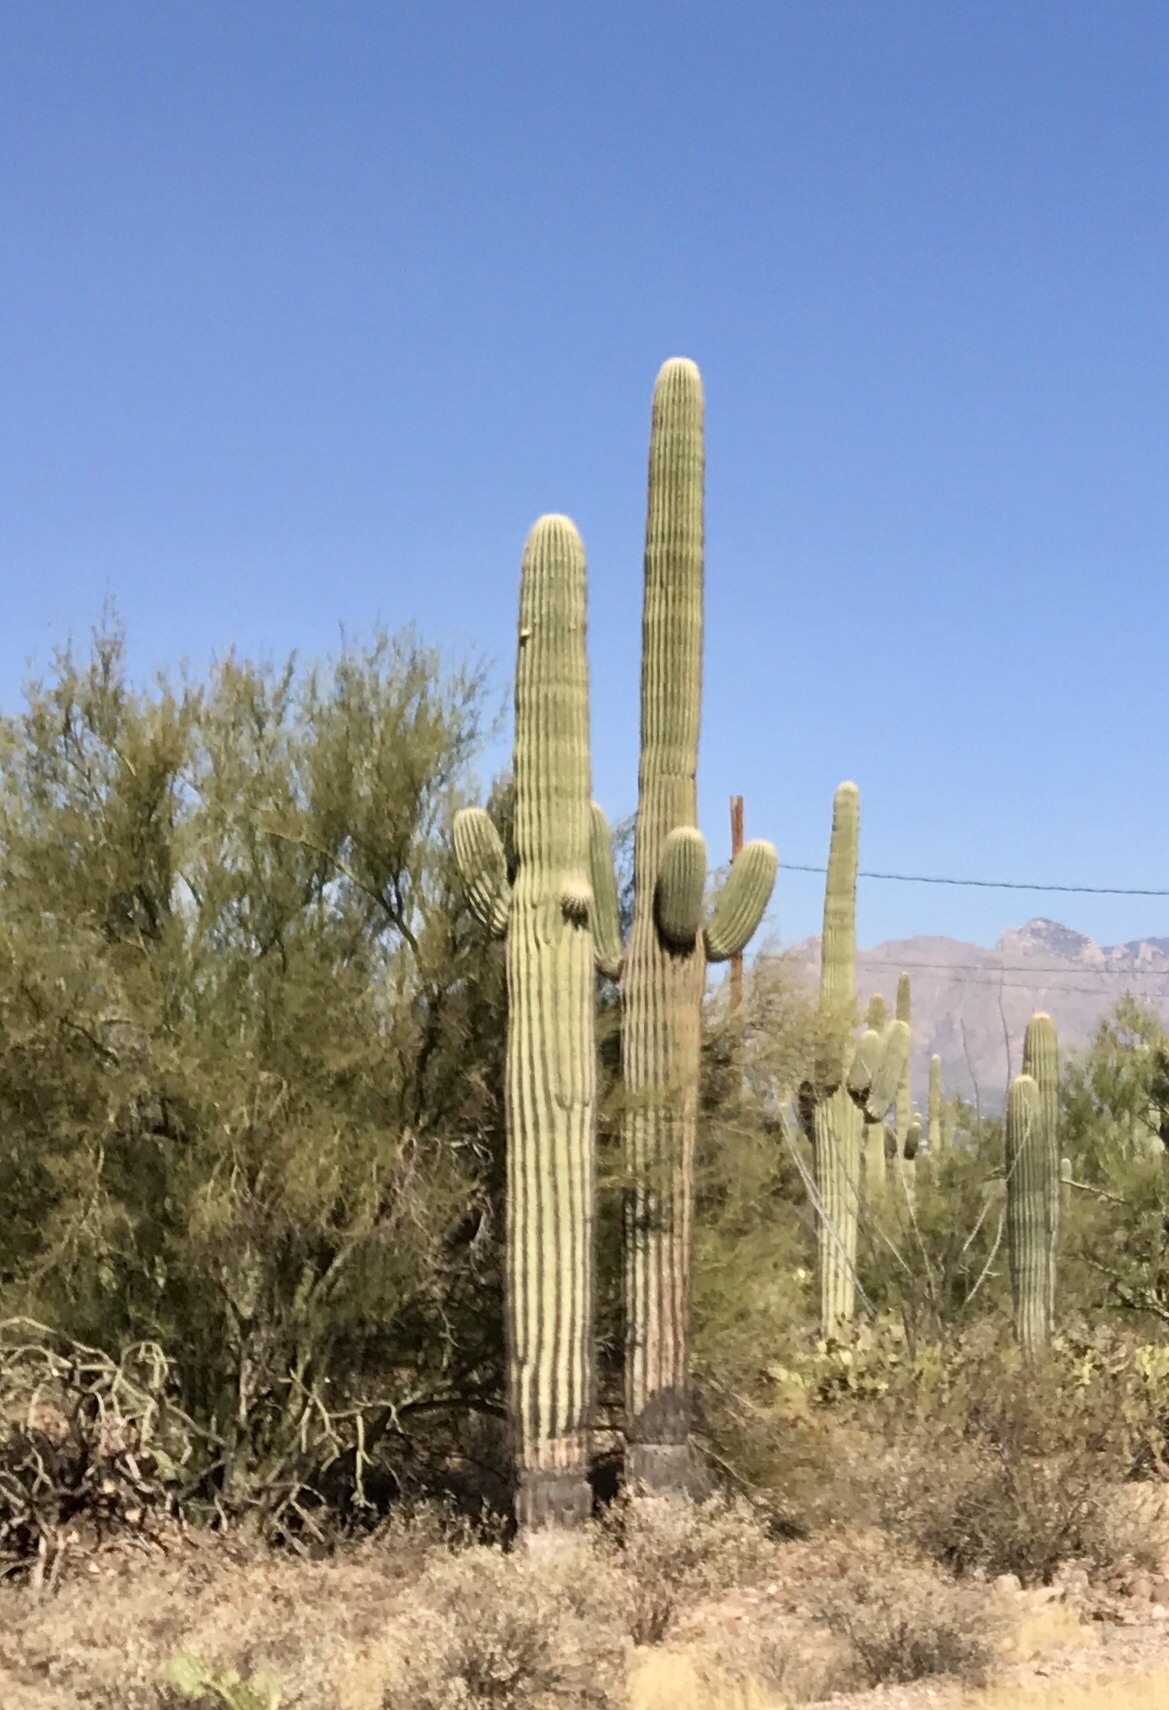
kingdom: Plantae
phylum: Tracheophyta
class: Magnoliopsida
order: Caryophyllales
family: Cactaceae
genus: Carnegiea
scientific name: Carnegiea gigantea
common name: Saguaro
